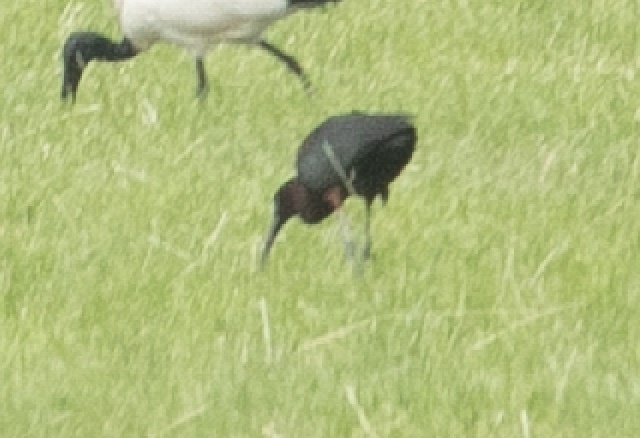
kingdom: Animalia
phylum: Chordata
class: Aves
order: Pelecaniformes
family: Threskiornithidae
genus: Plegadis
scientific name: Plegadis falcinellus
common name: Glossy ibis
